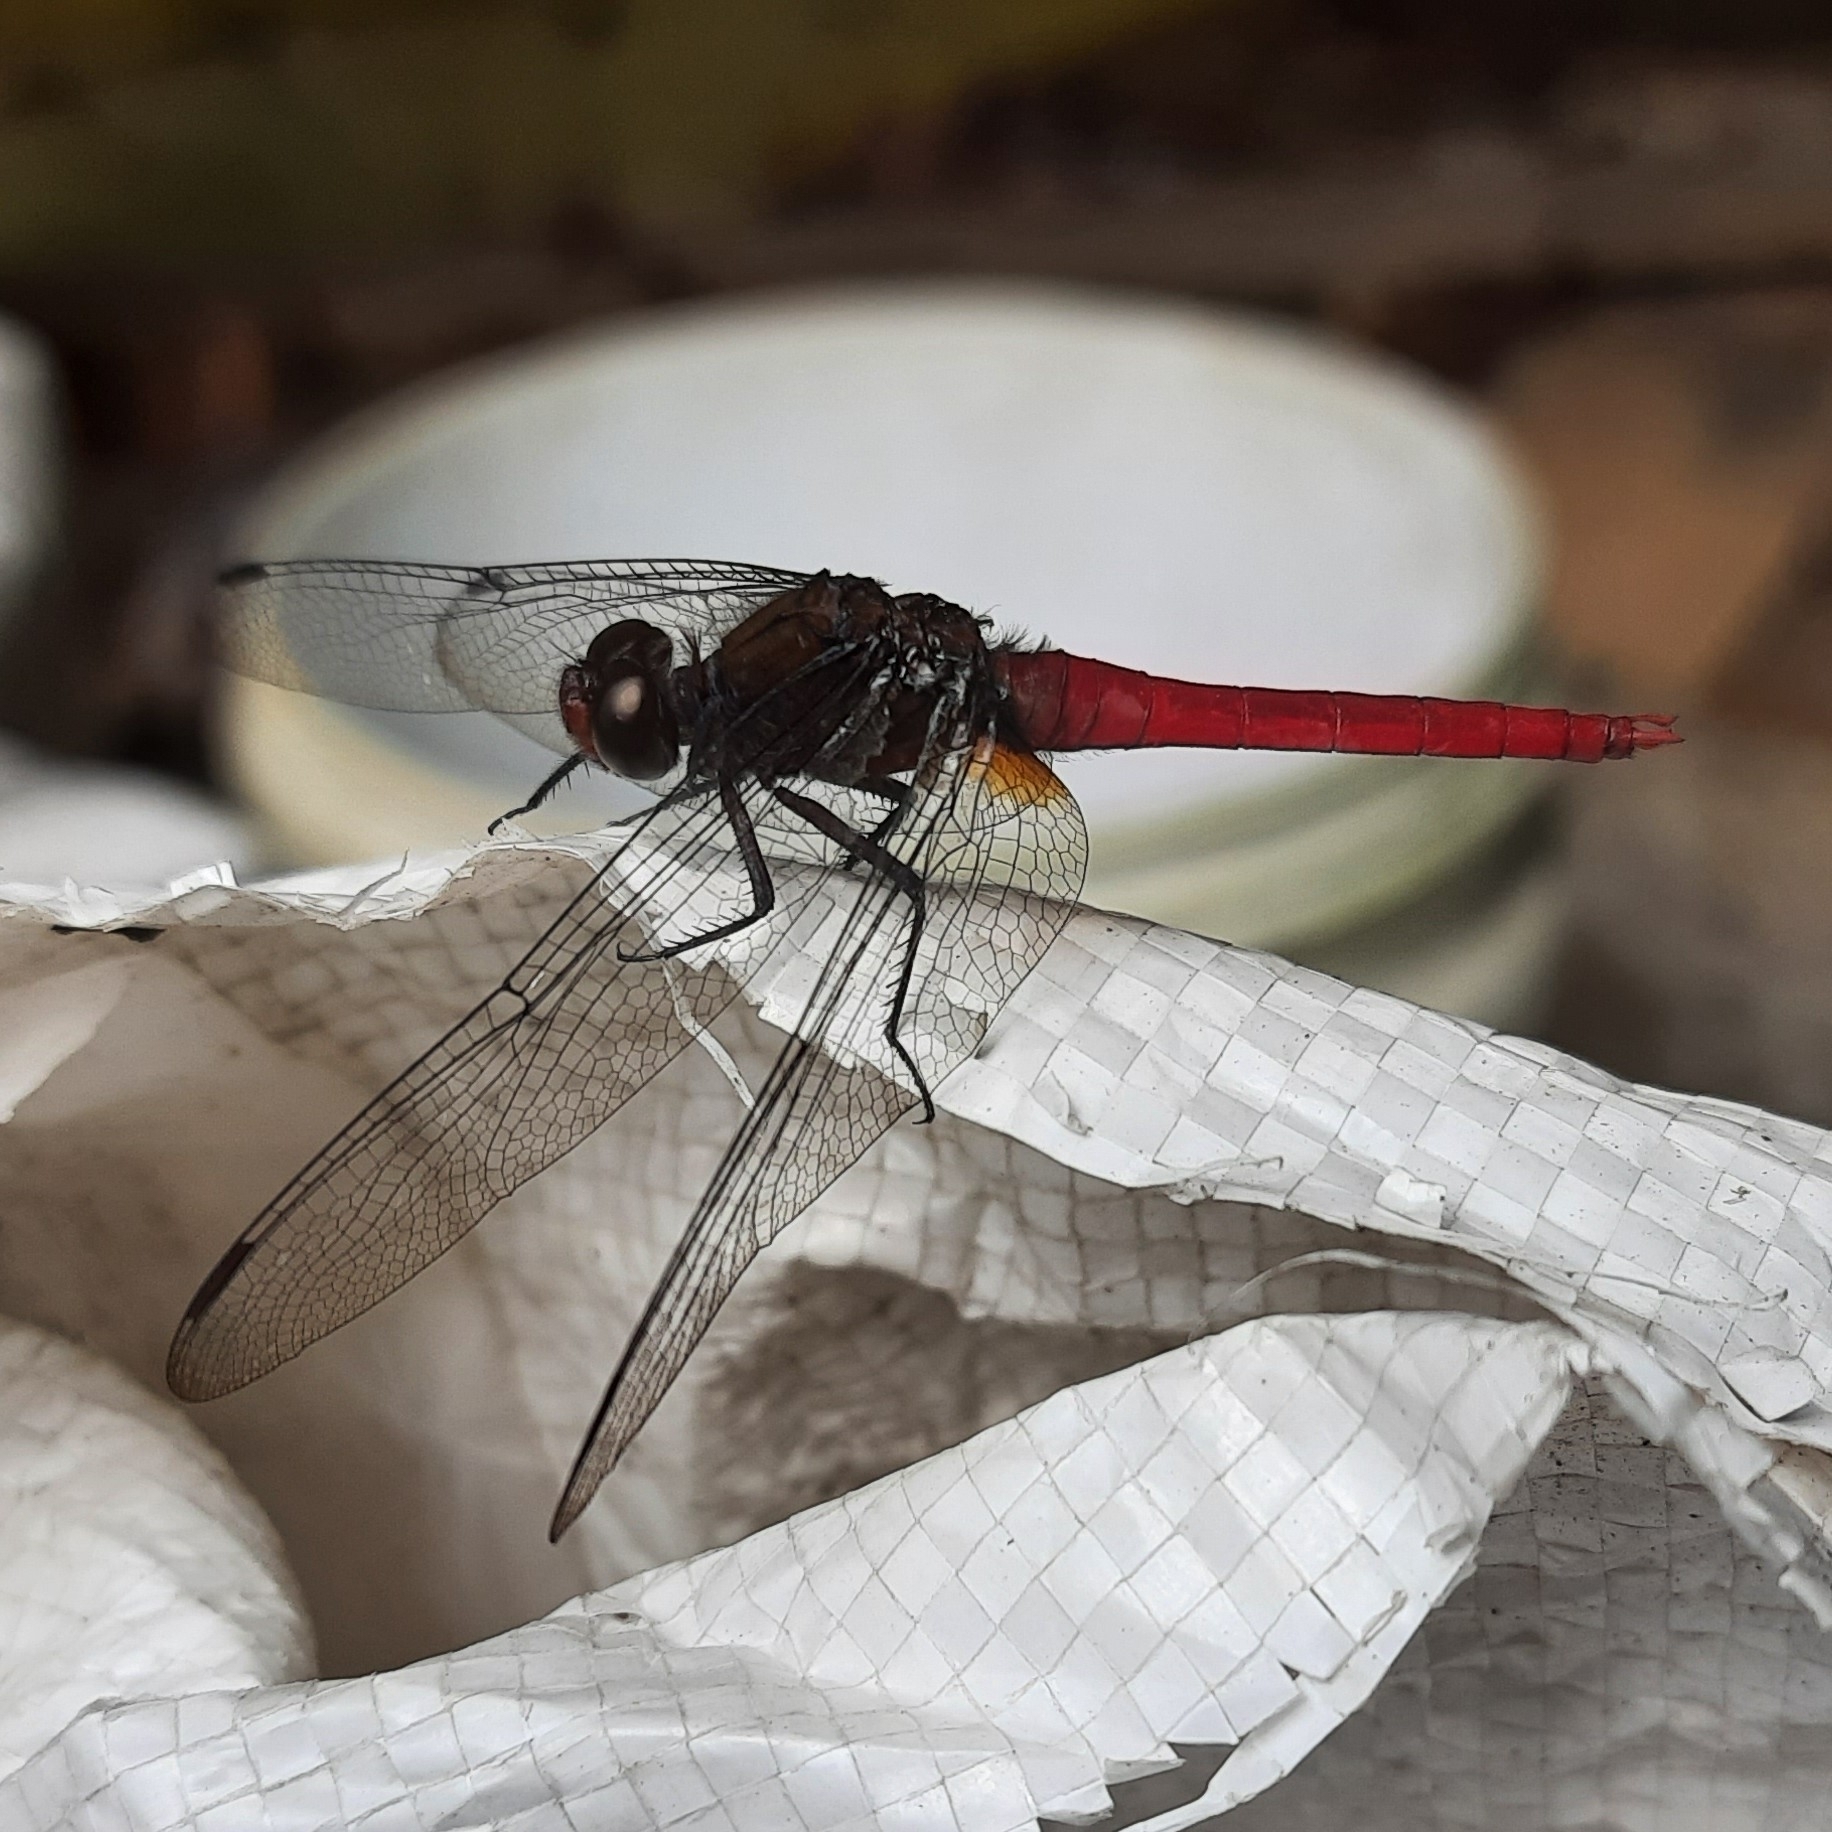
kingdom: Animalia
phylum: Arthropoda
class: Insecta
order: Odonata
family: Libellulidae
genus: Orthetrum
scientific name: Orthetrum chrysis
